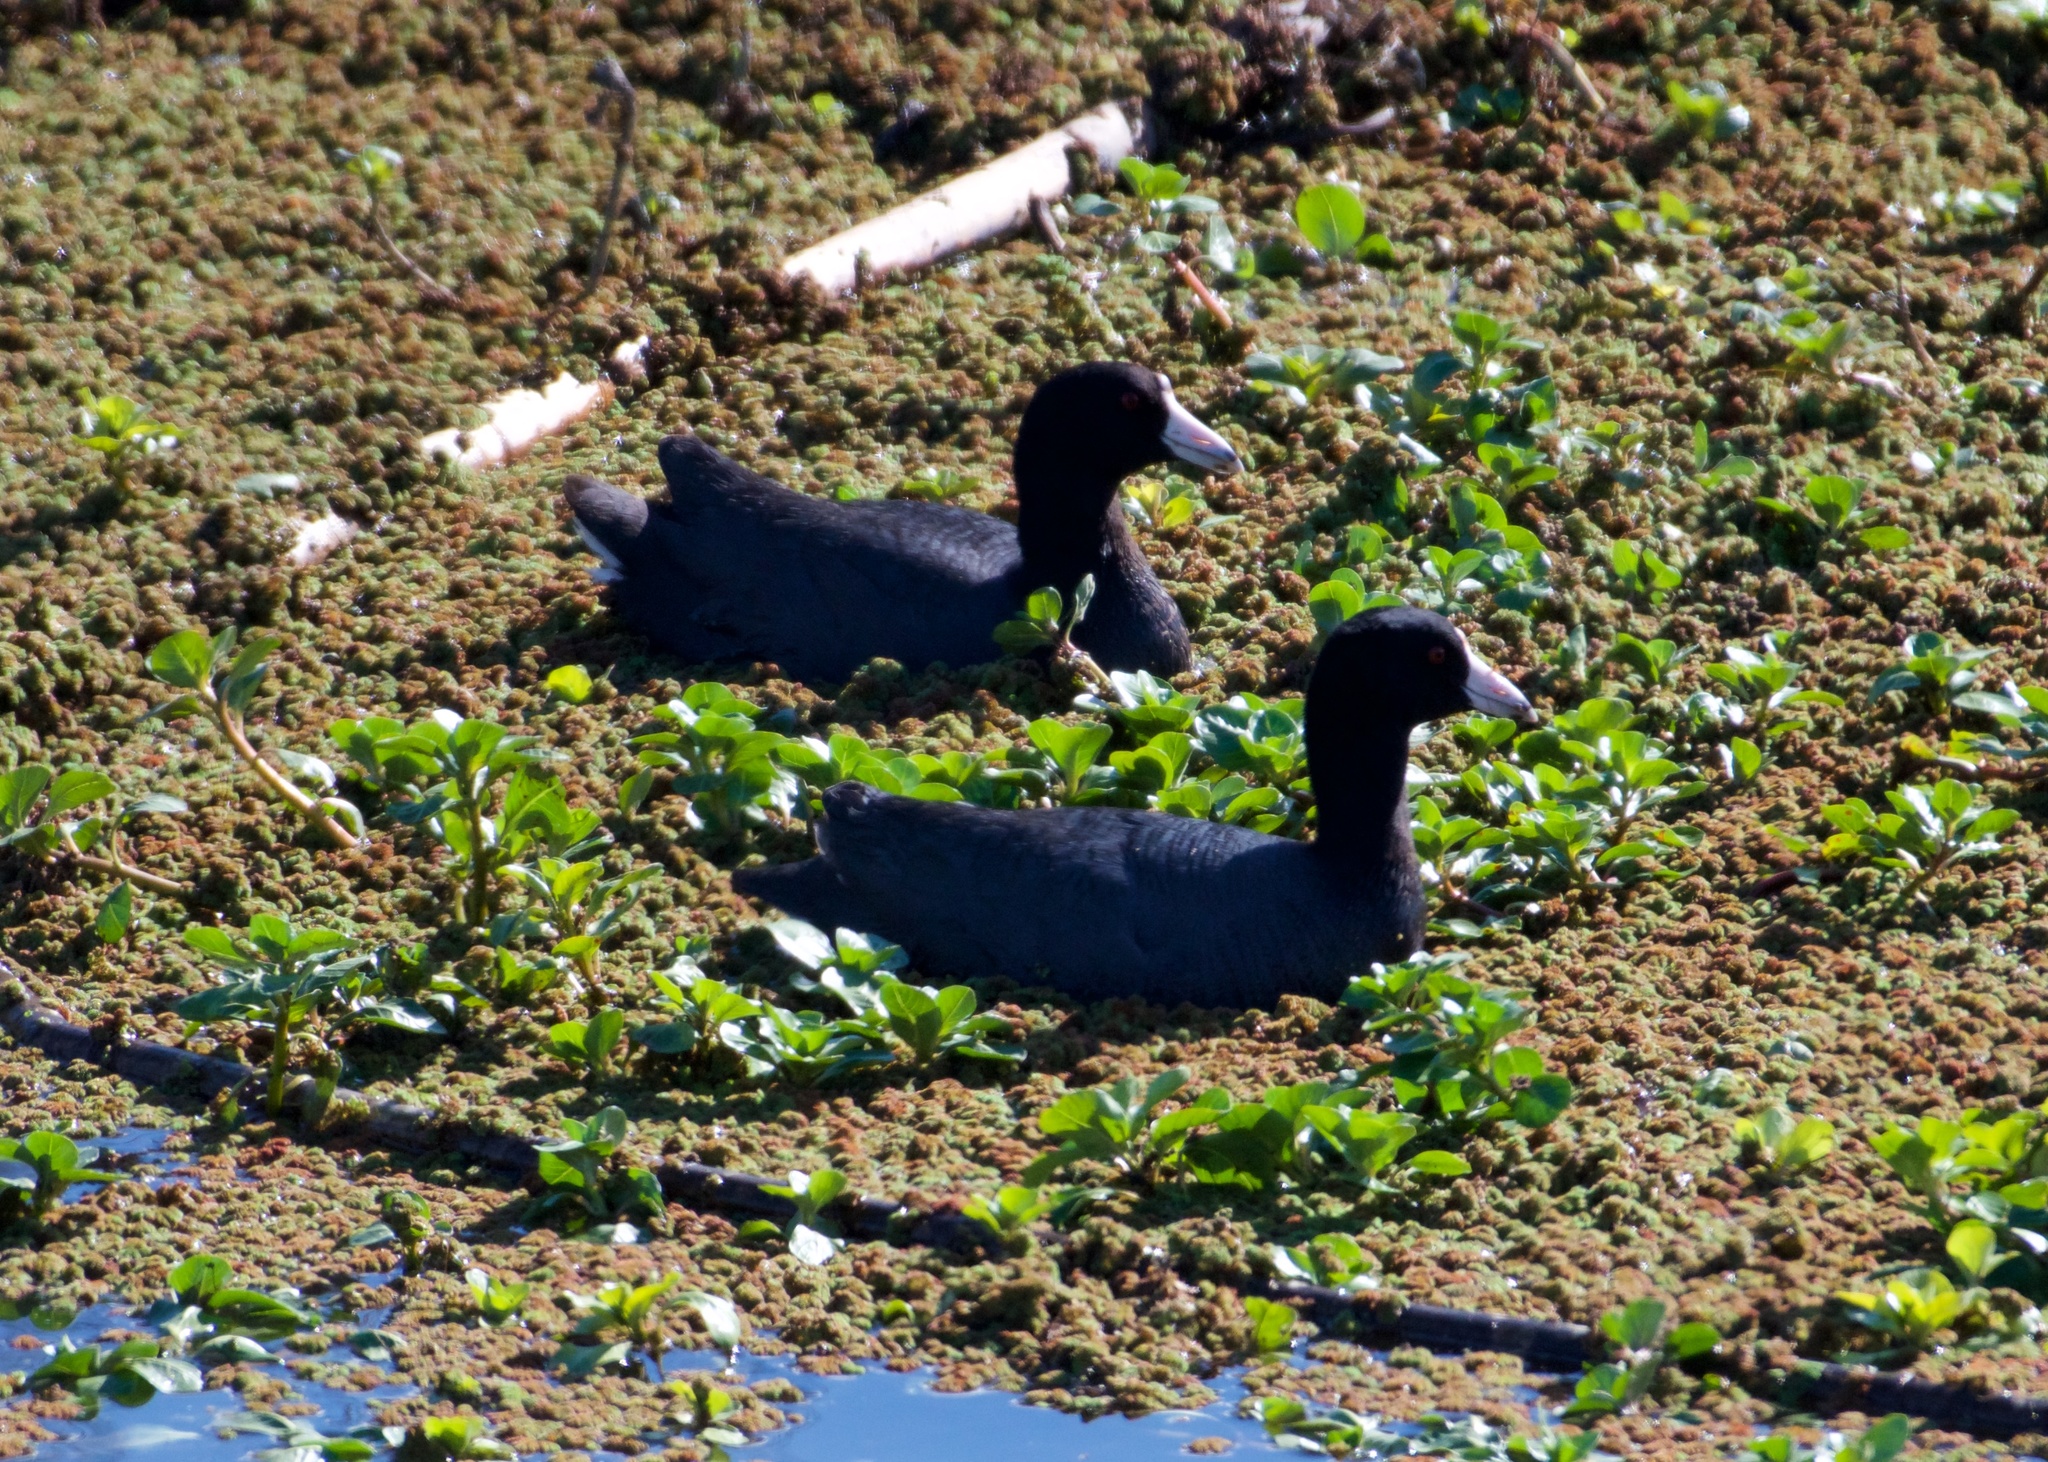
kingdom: Animalia
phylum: Chordata
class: Aves
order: Gruiformes
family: Rallidae
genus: Fulica
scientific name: Fulica americana
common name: American coot
